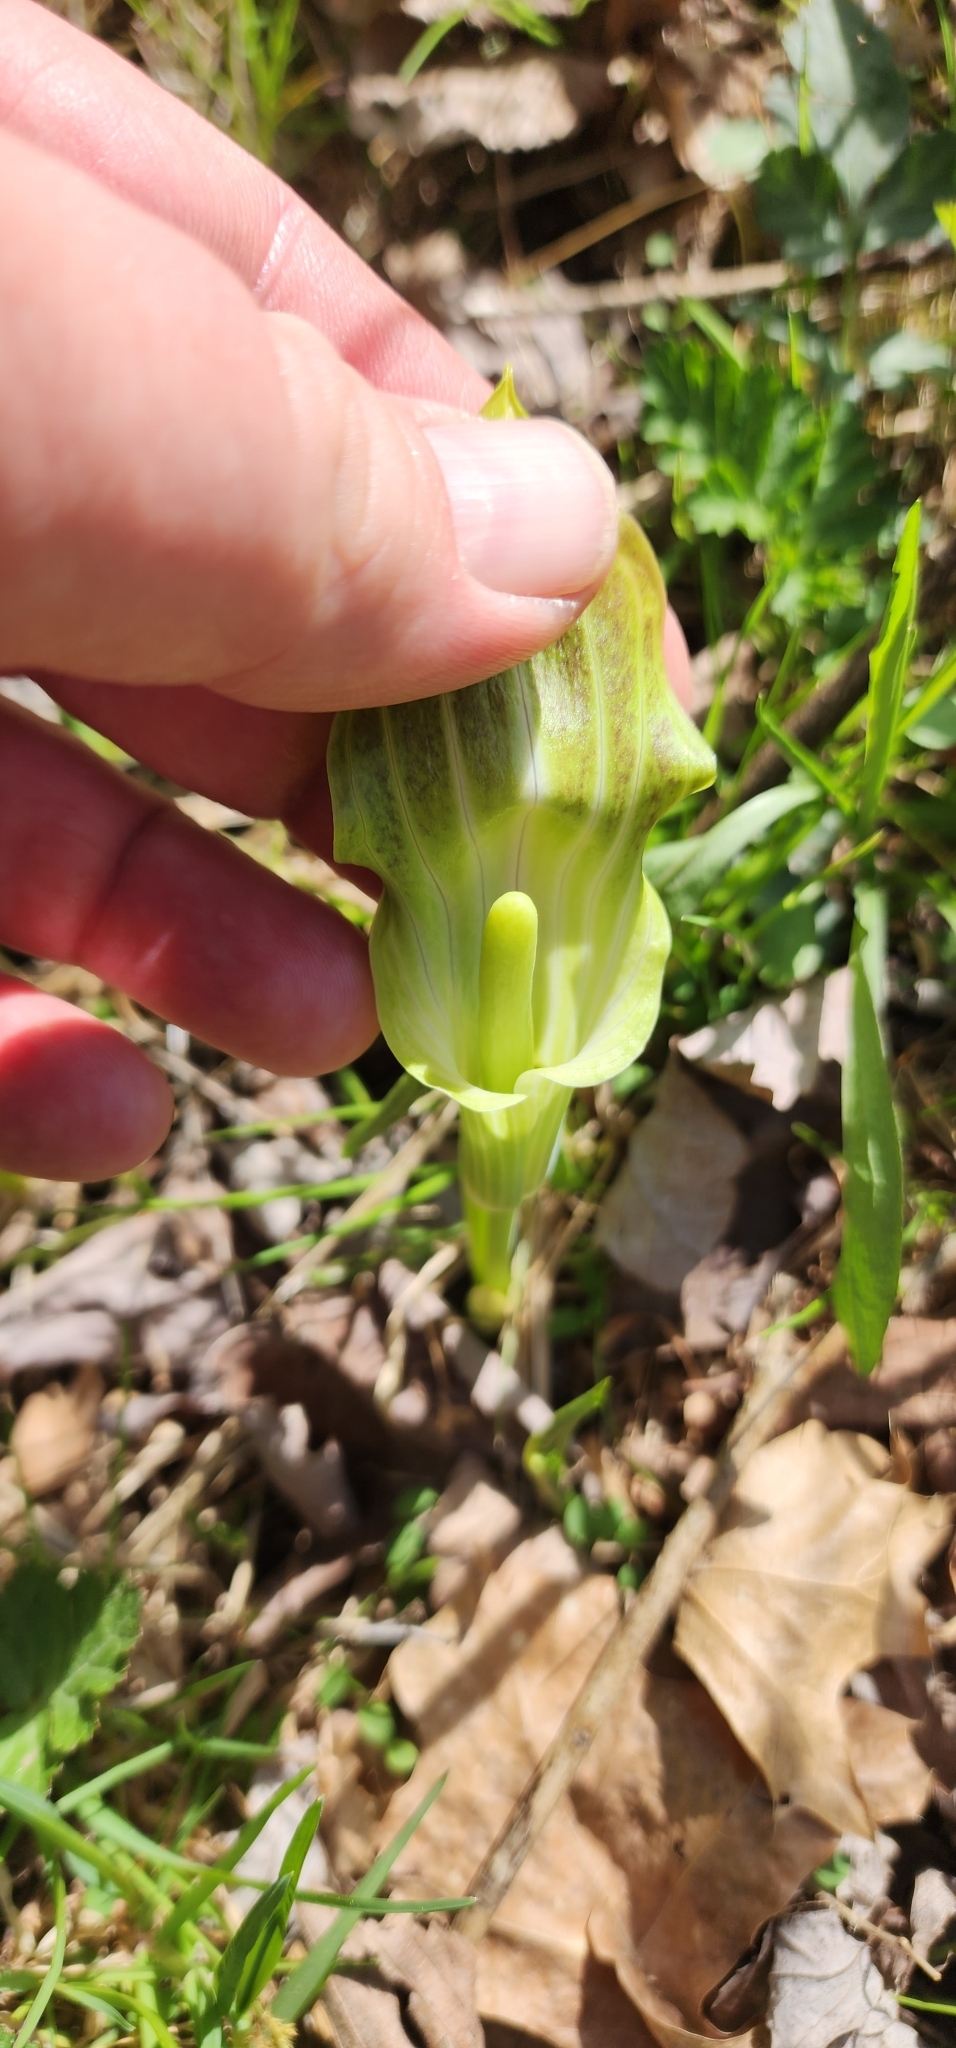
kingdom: Plantae
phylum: Tracheophyta
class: Liliopsida
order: Alismatales
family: Araceae
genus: Arisaema
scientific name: Arisaema triphyllum
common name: Jack-in-the-pulpit
